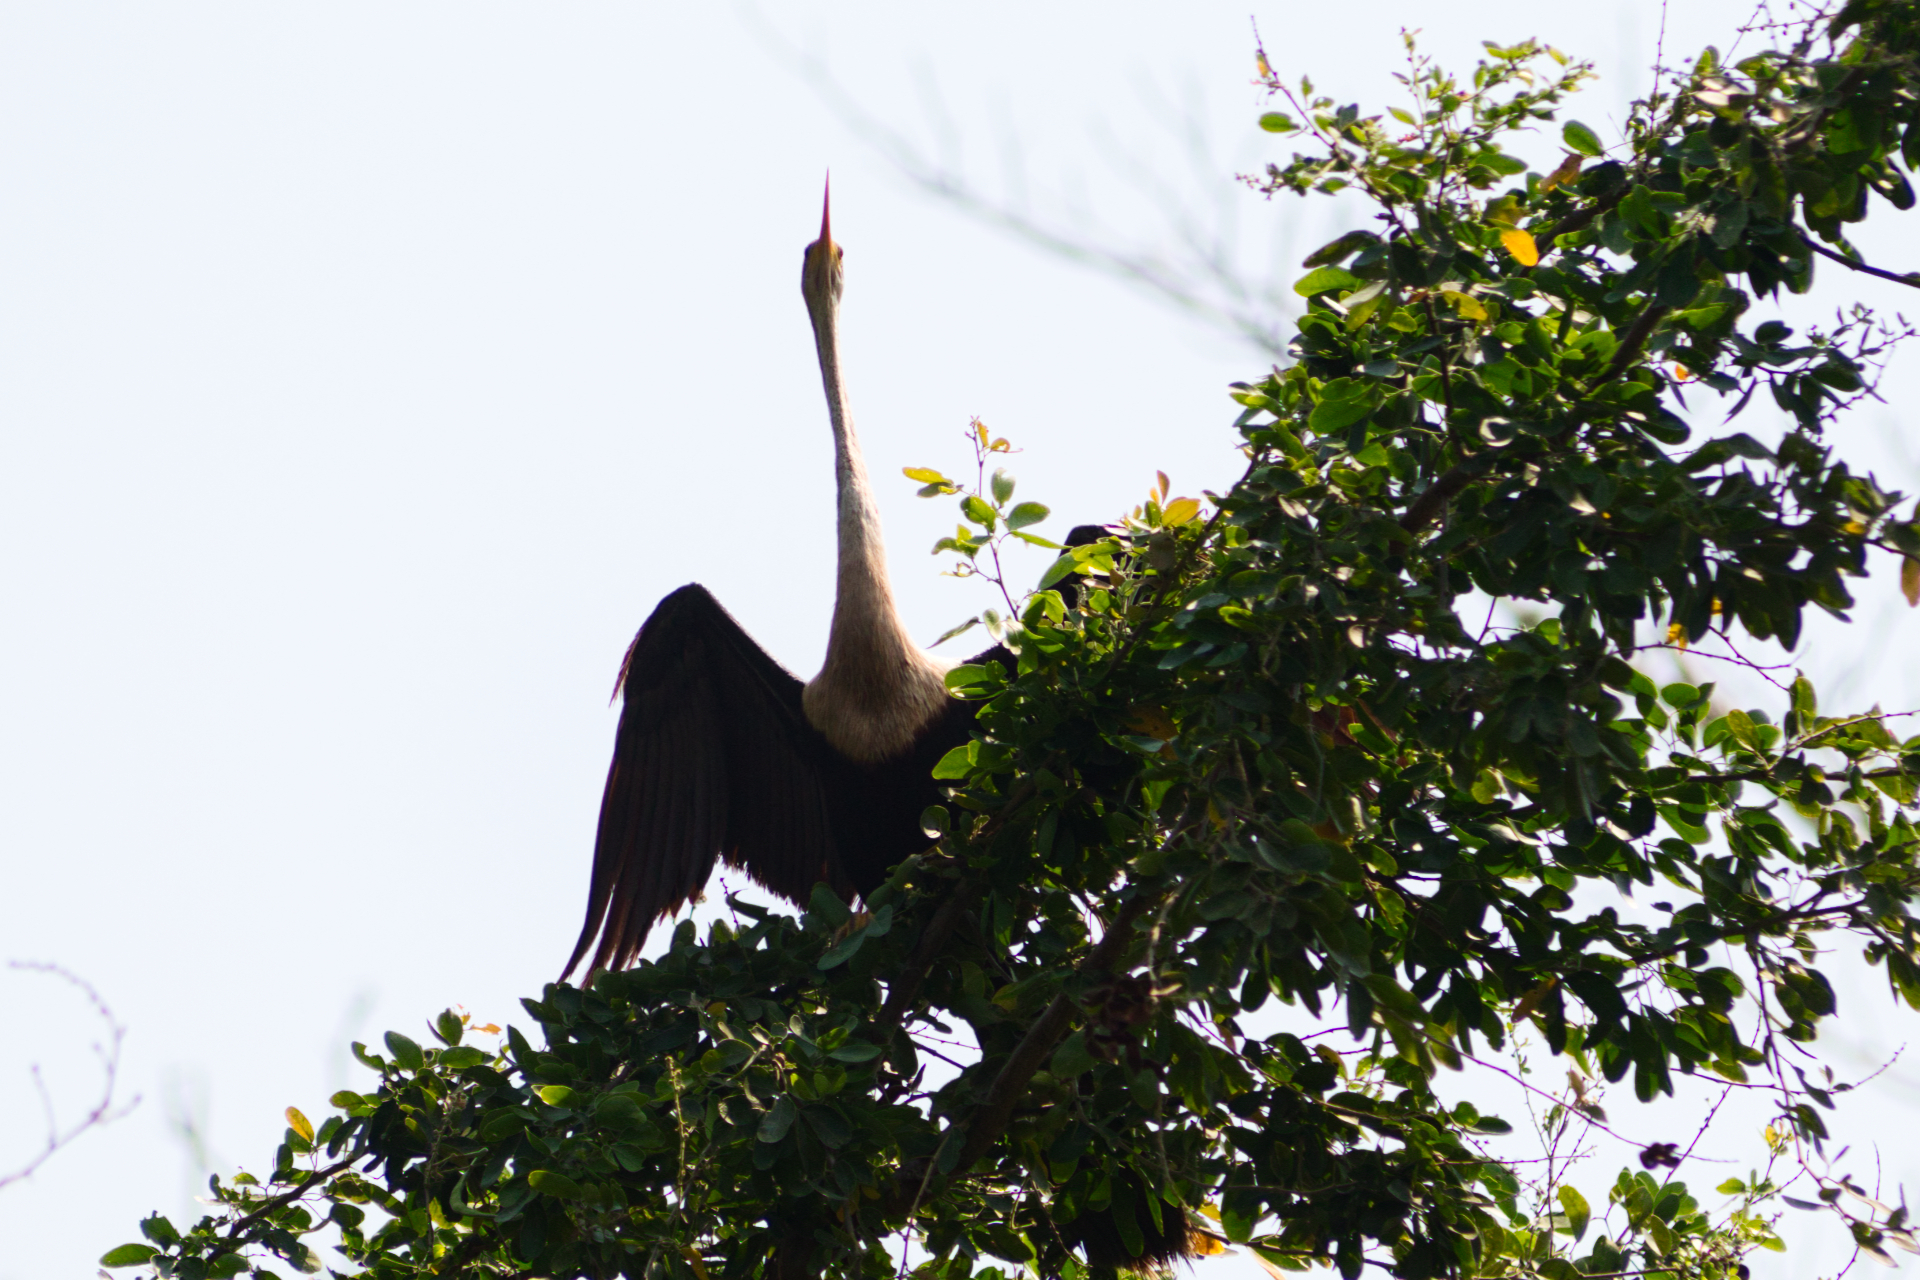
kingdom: Animalia
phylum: Chordata
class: Aves
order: Suliformes
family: Anhingidae
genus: Anhinga
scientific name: Anhinga anhinga
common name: Anhinga
